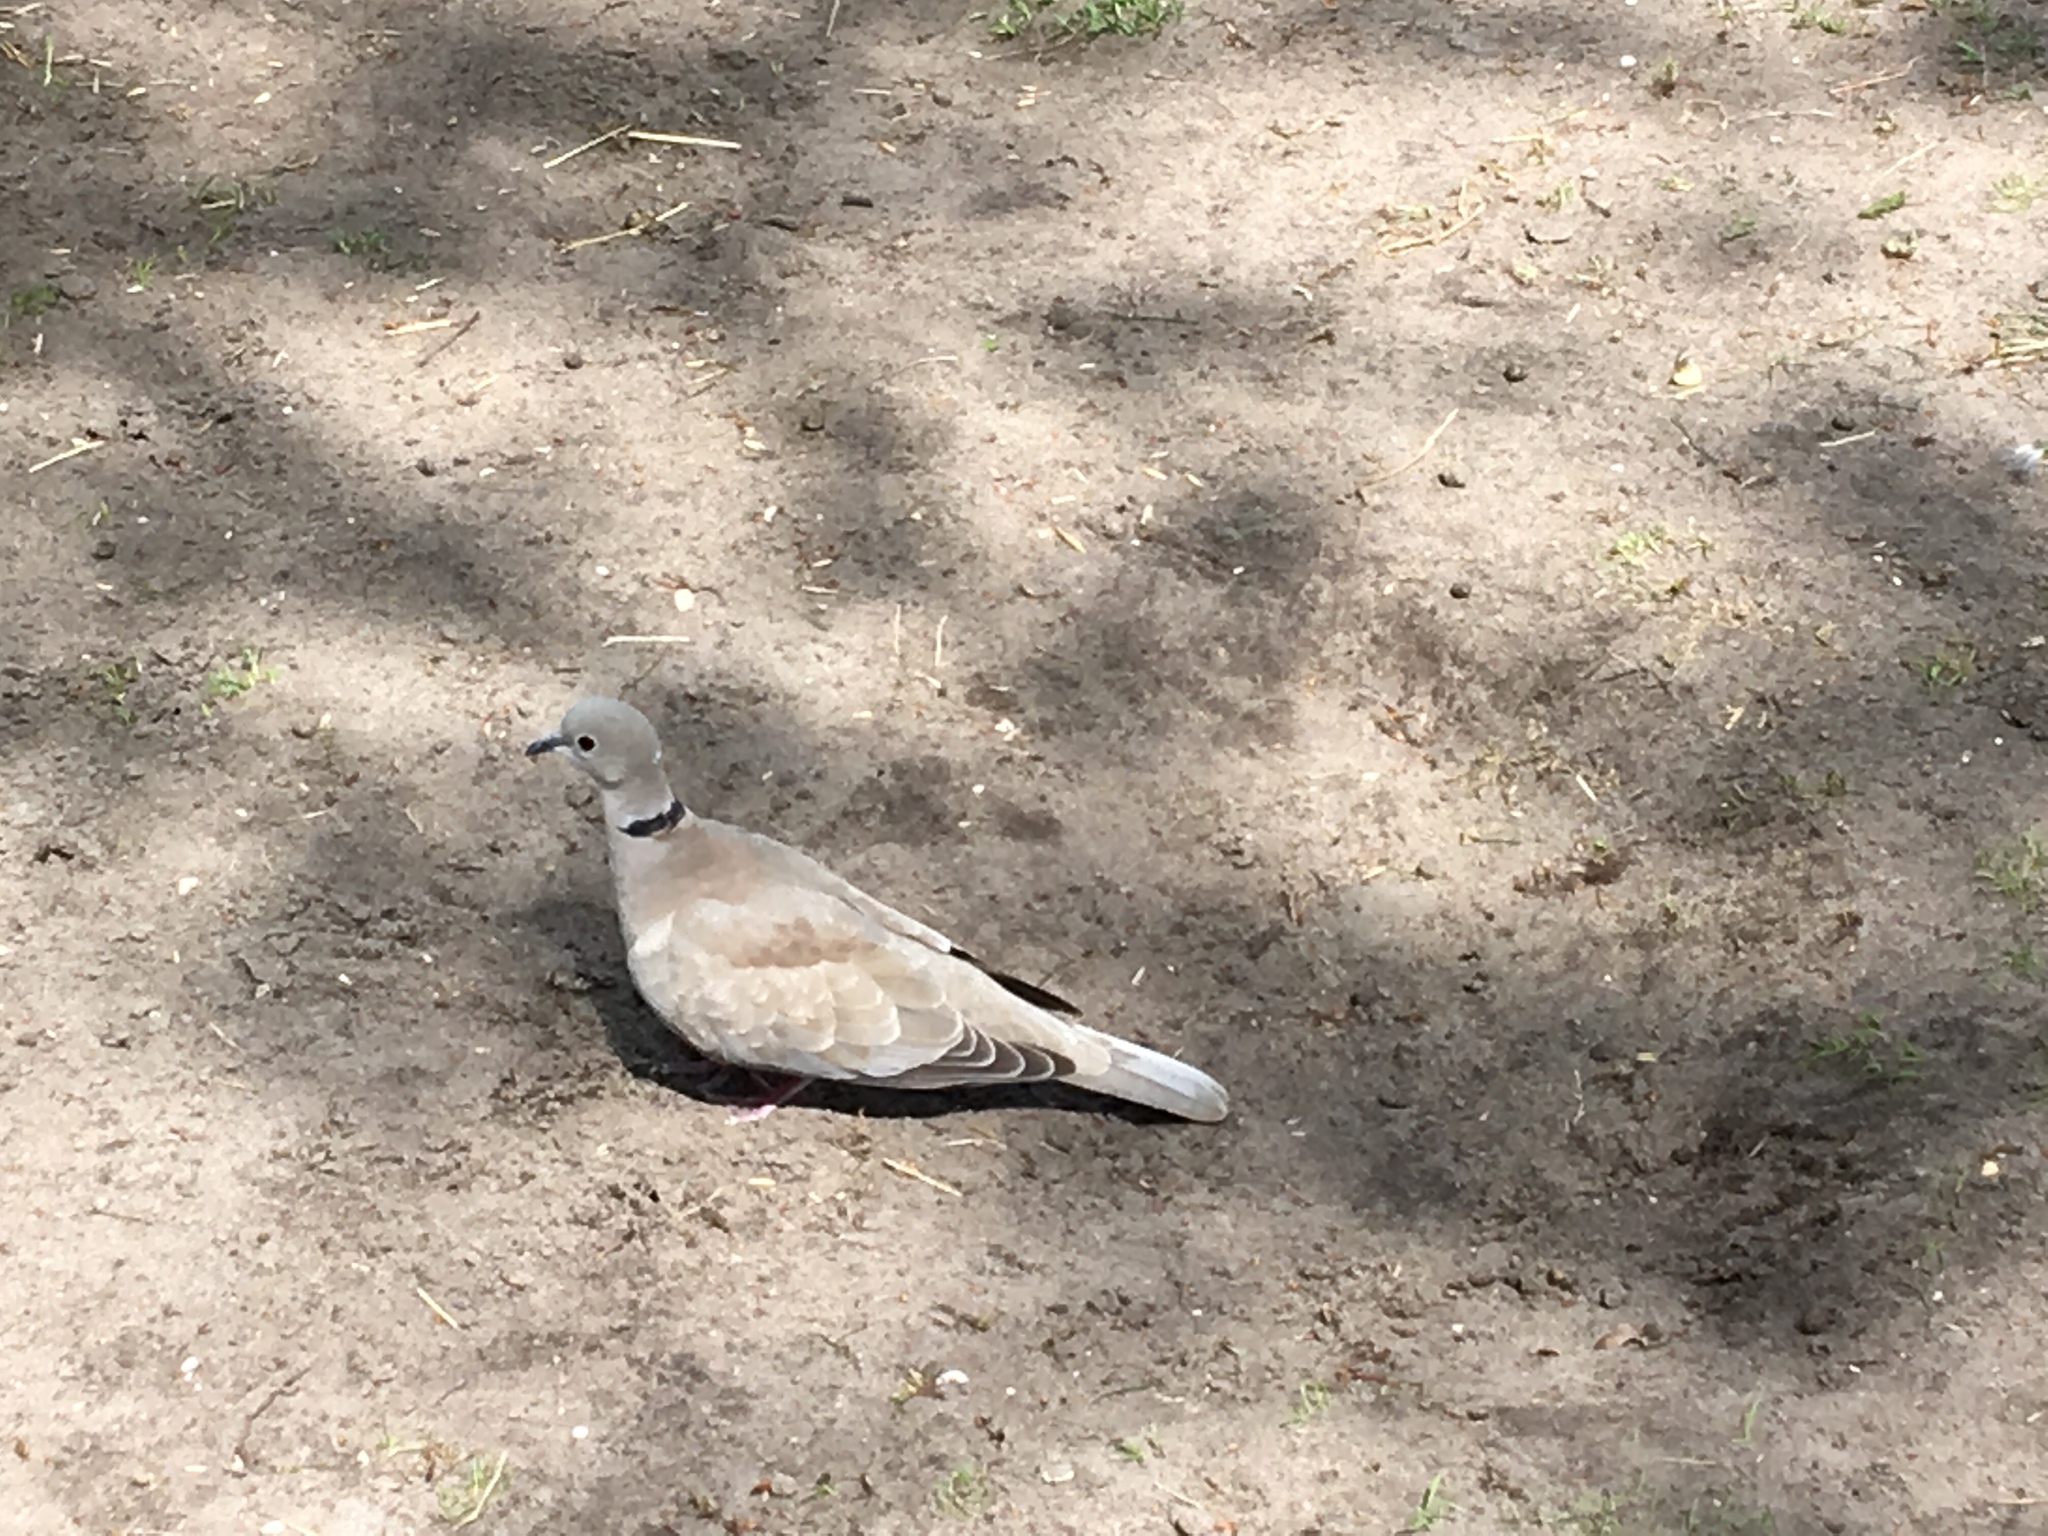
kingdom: Animalia
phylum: Chordata
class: Aves
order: Columbiformes
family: Columbidae
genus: Streptopelia
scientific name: Streptopelia decaocto
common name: Eurasian collared dove
